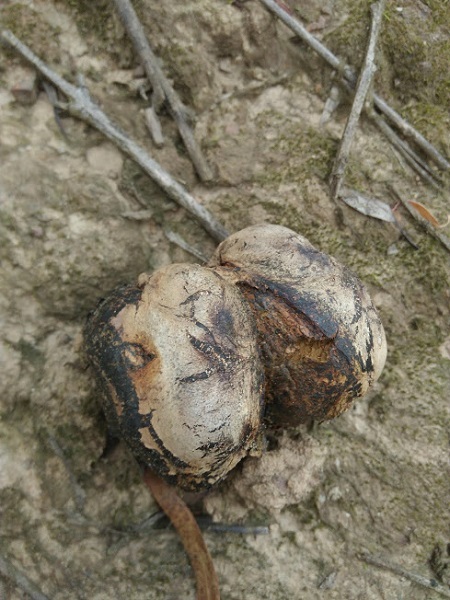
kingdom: Fungi
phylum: Basidiomycota
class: Agaricomycetes
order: Boletales
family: Sclerodermataceae
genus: Pisolithus
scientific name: Pisolithus
